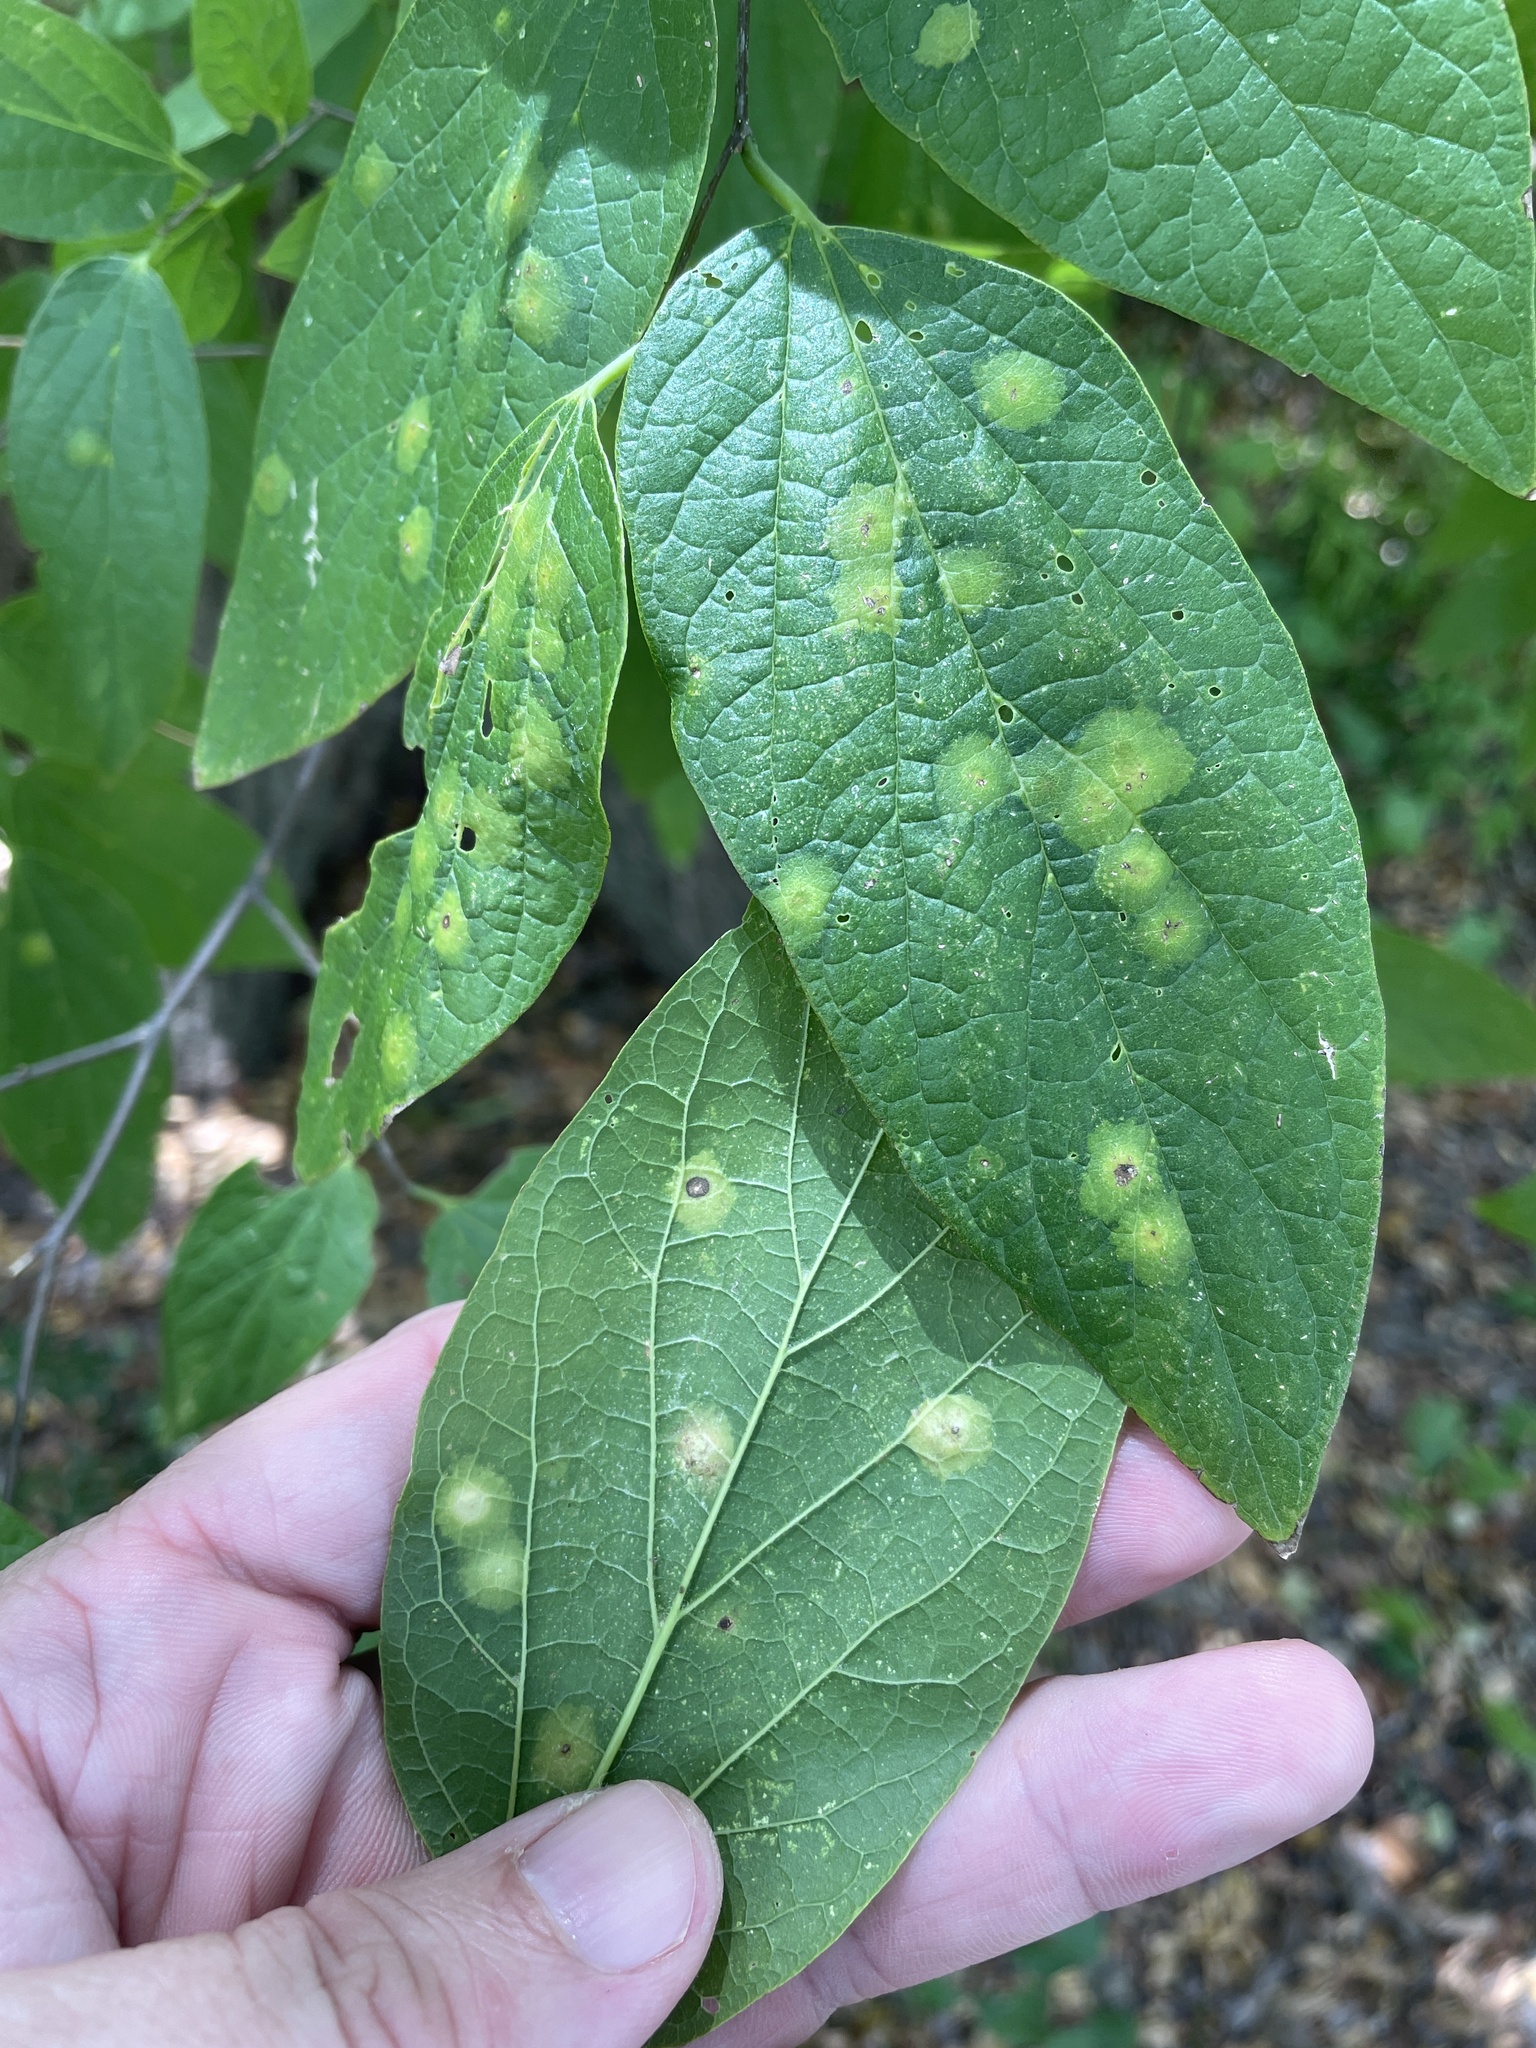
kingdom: Animalia
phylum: Arthropoda
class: Insecta
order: Hemiptera
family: Aphalaridae
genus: Pachypsylla
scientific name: Pachypsylla celtidisvesicula
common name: Hackberry blister gall psyllid
